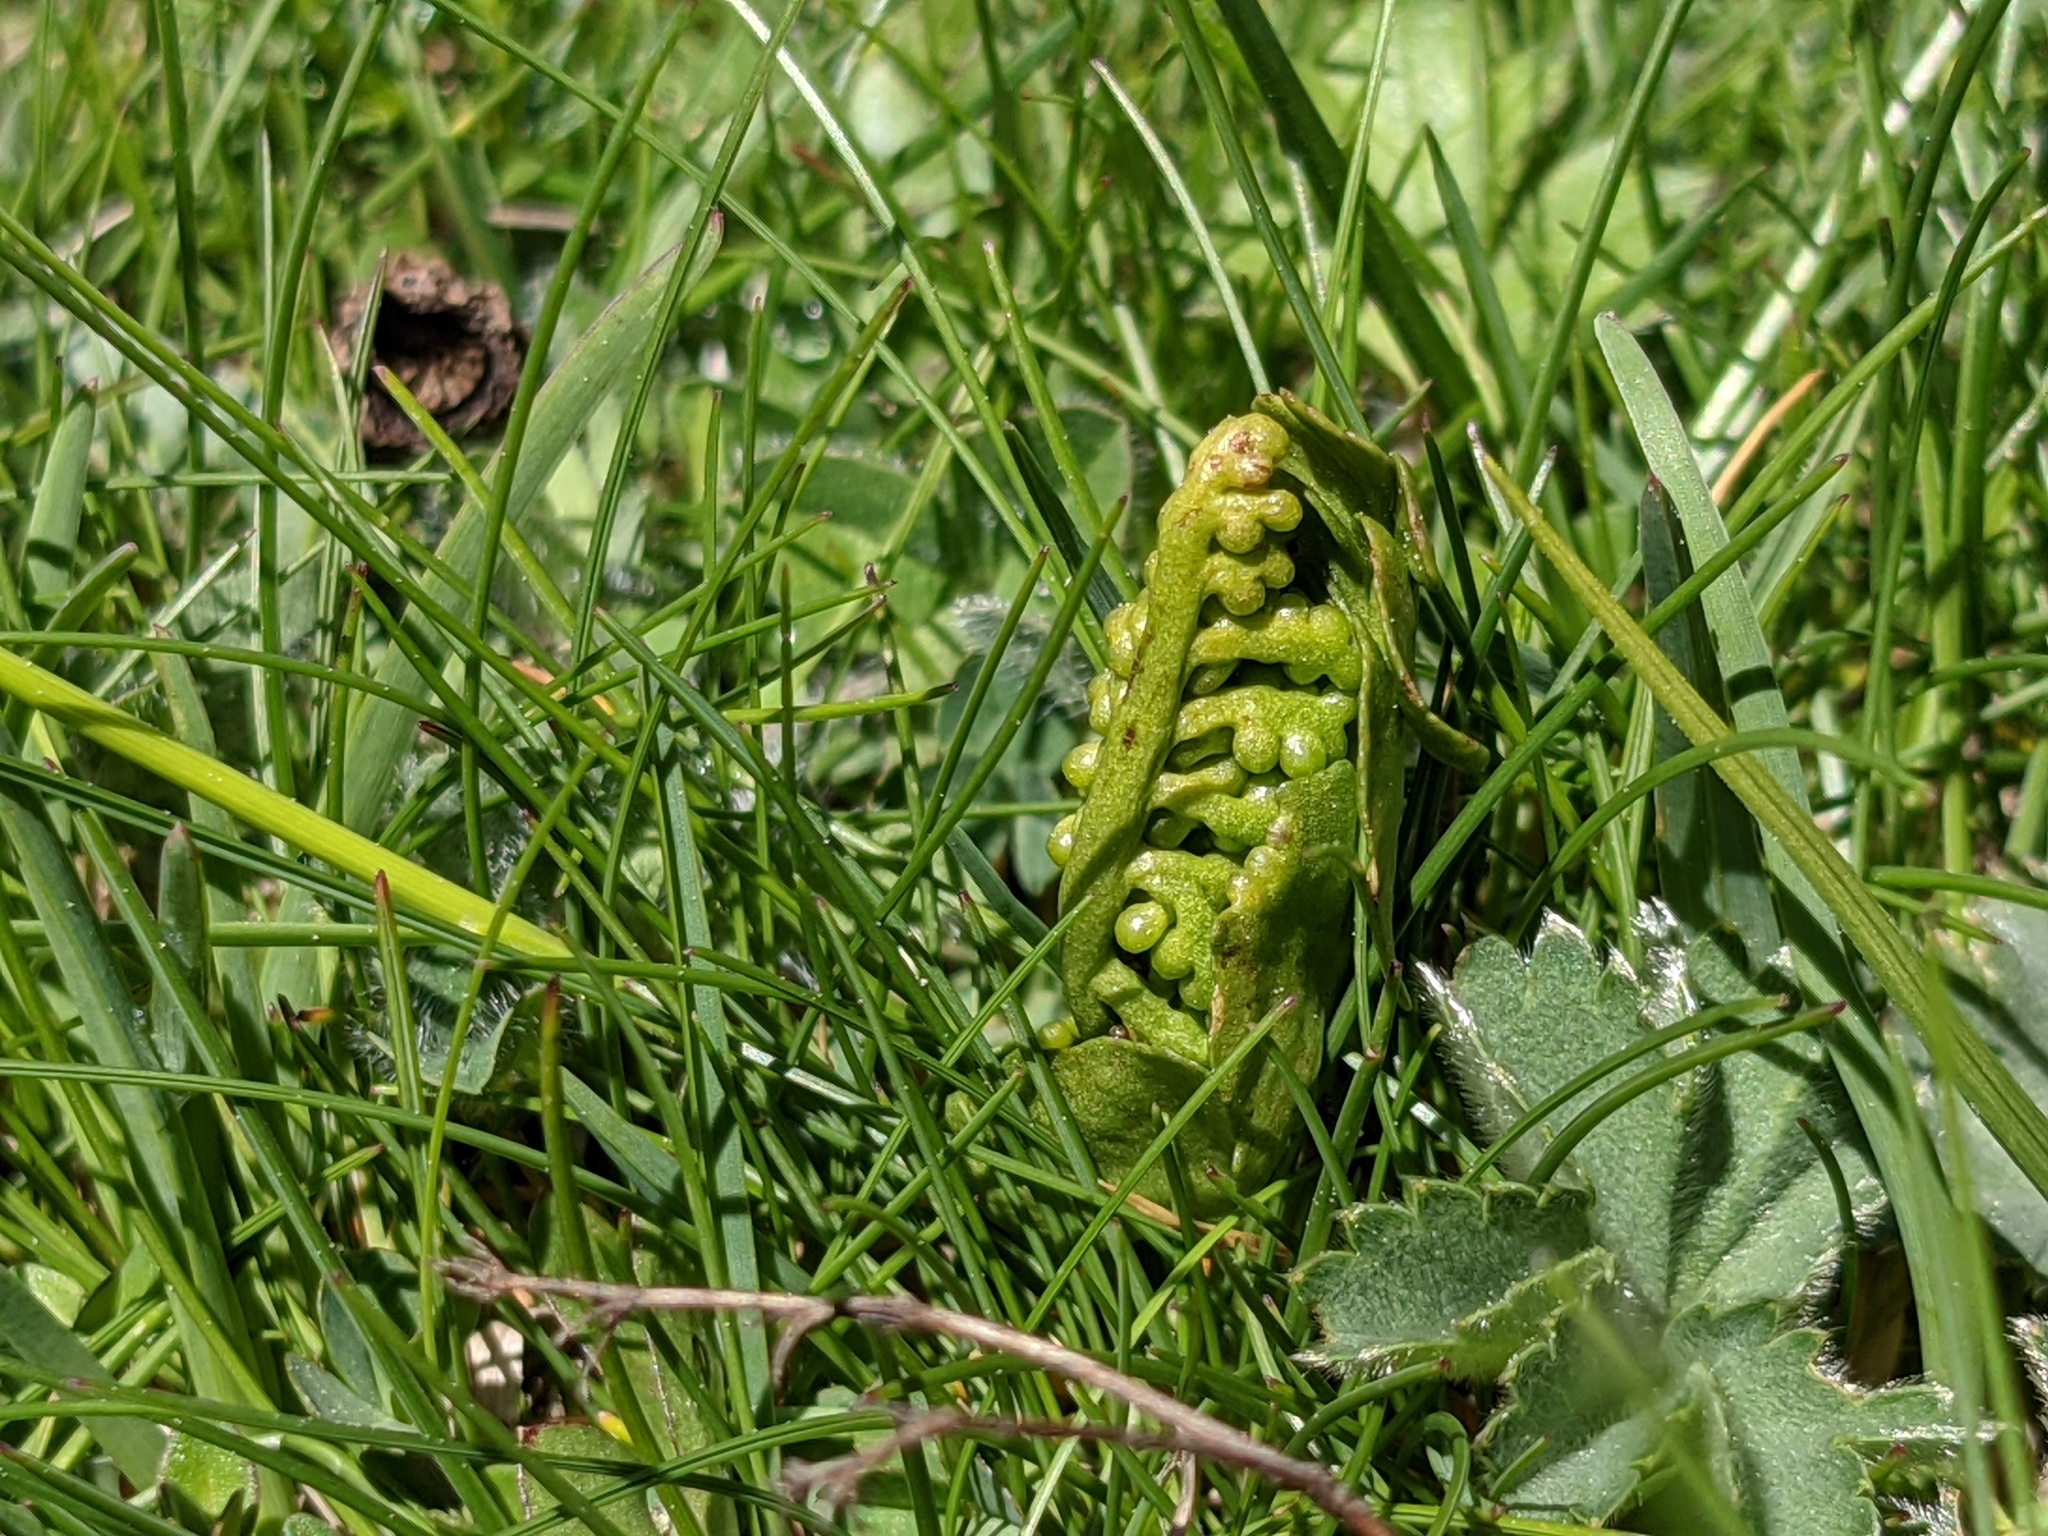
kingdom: Plantae
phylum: Tracheophyta
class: Polypodiopsida
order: Ophioglossales
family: Ophioglossaceae
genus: Botrychium
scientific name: Botrychium lunaria
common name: Moonwort
